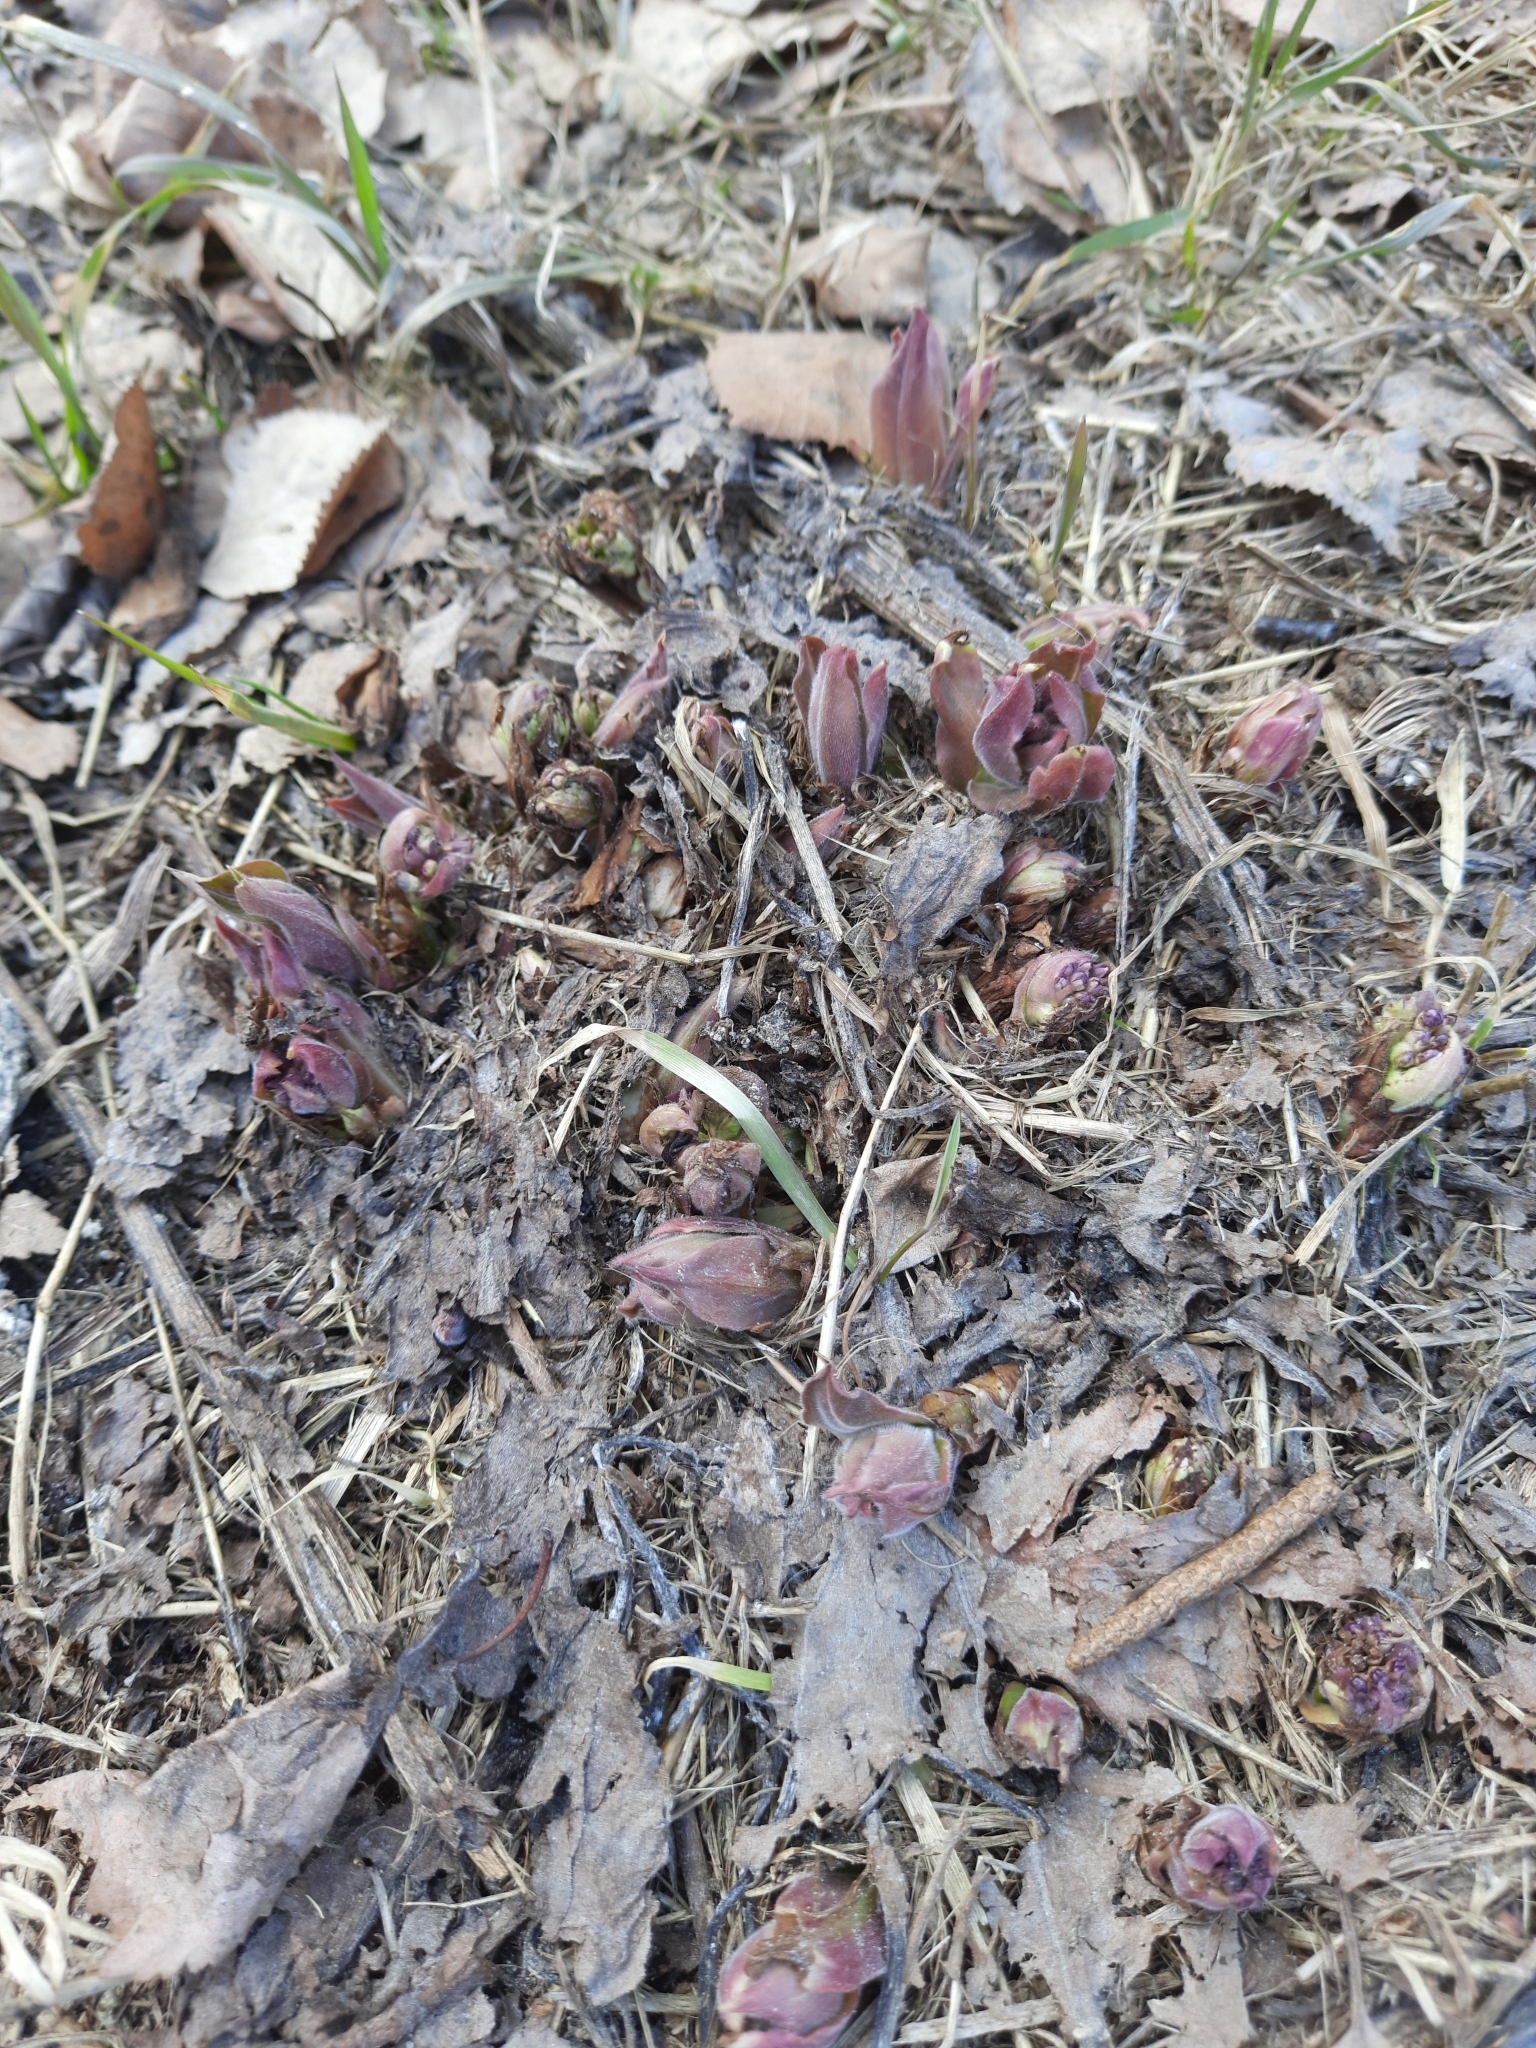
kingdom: Plantae
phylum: Tracheophyta
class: Magnoliopsida
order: Boraginales
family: Boraginaceae
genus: Pulmonaria
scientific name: Pulmonaria mollis
